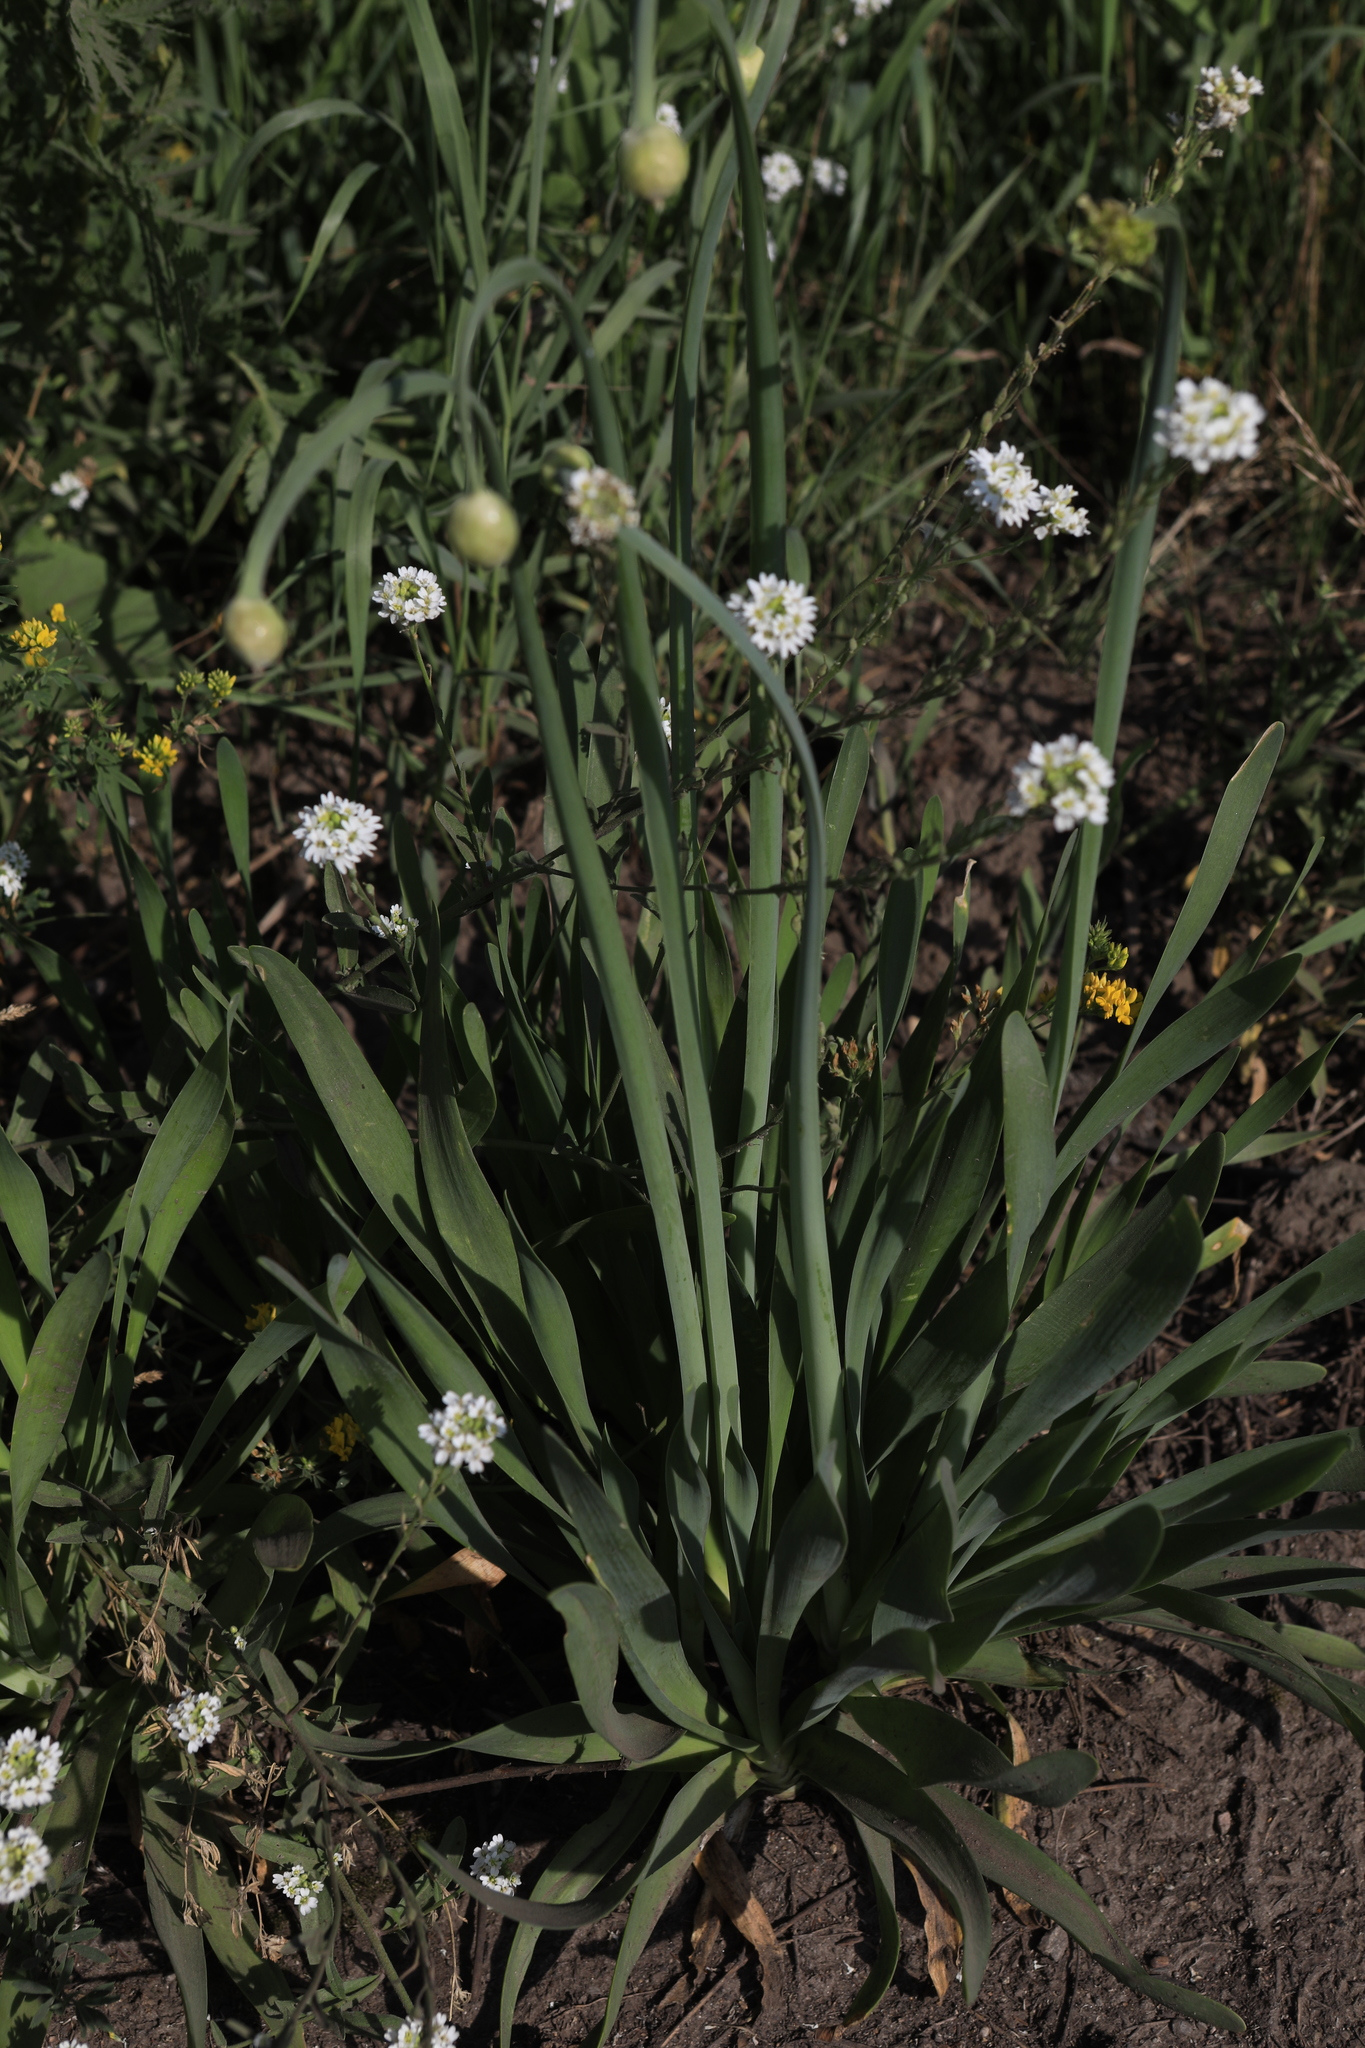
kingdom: Plantae
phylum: Tracheophyta
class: Liliopsida
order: Asparagales
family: Amaryllidaceae
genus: Allium
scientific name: Allium nutans
